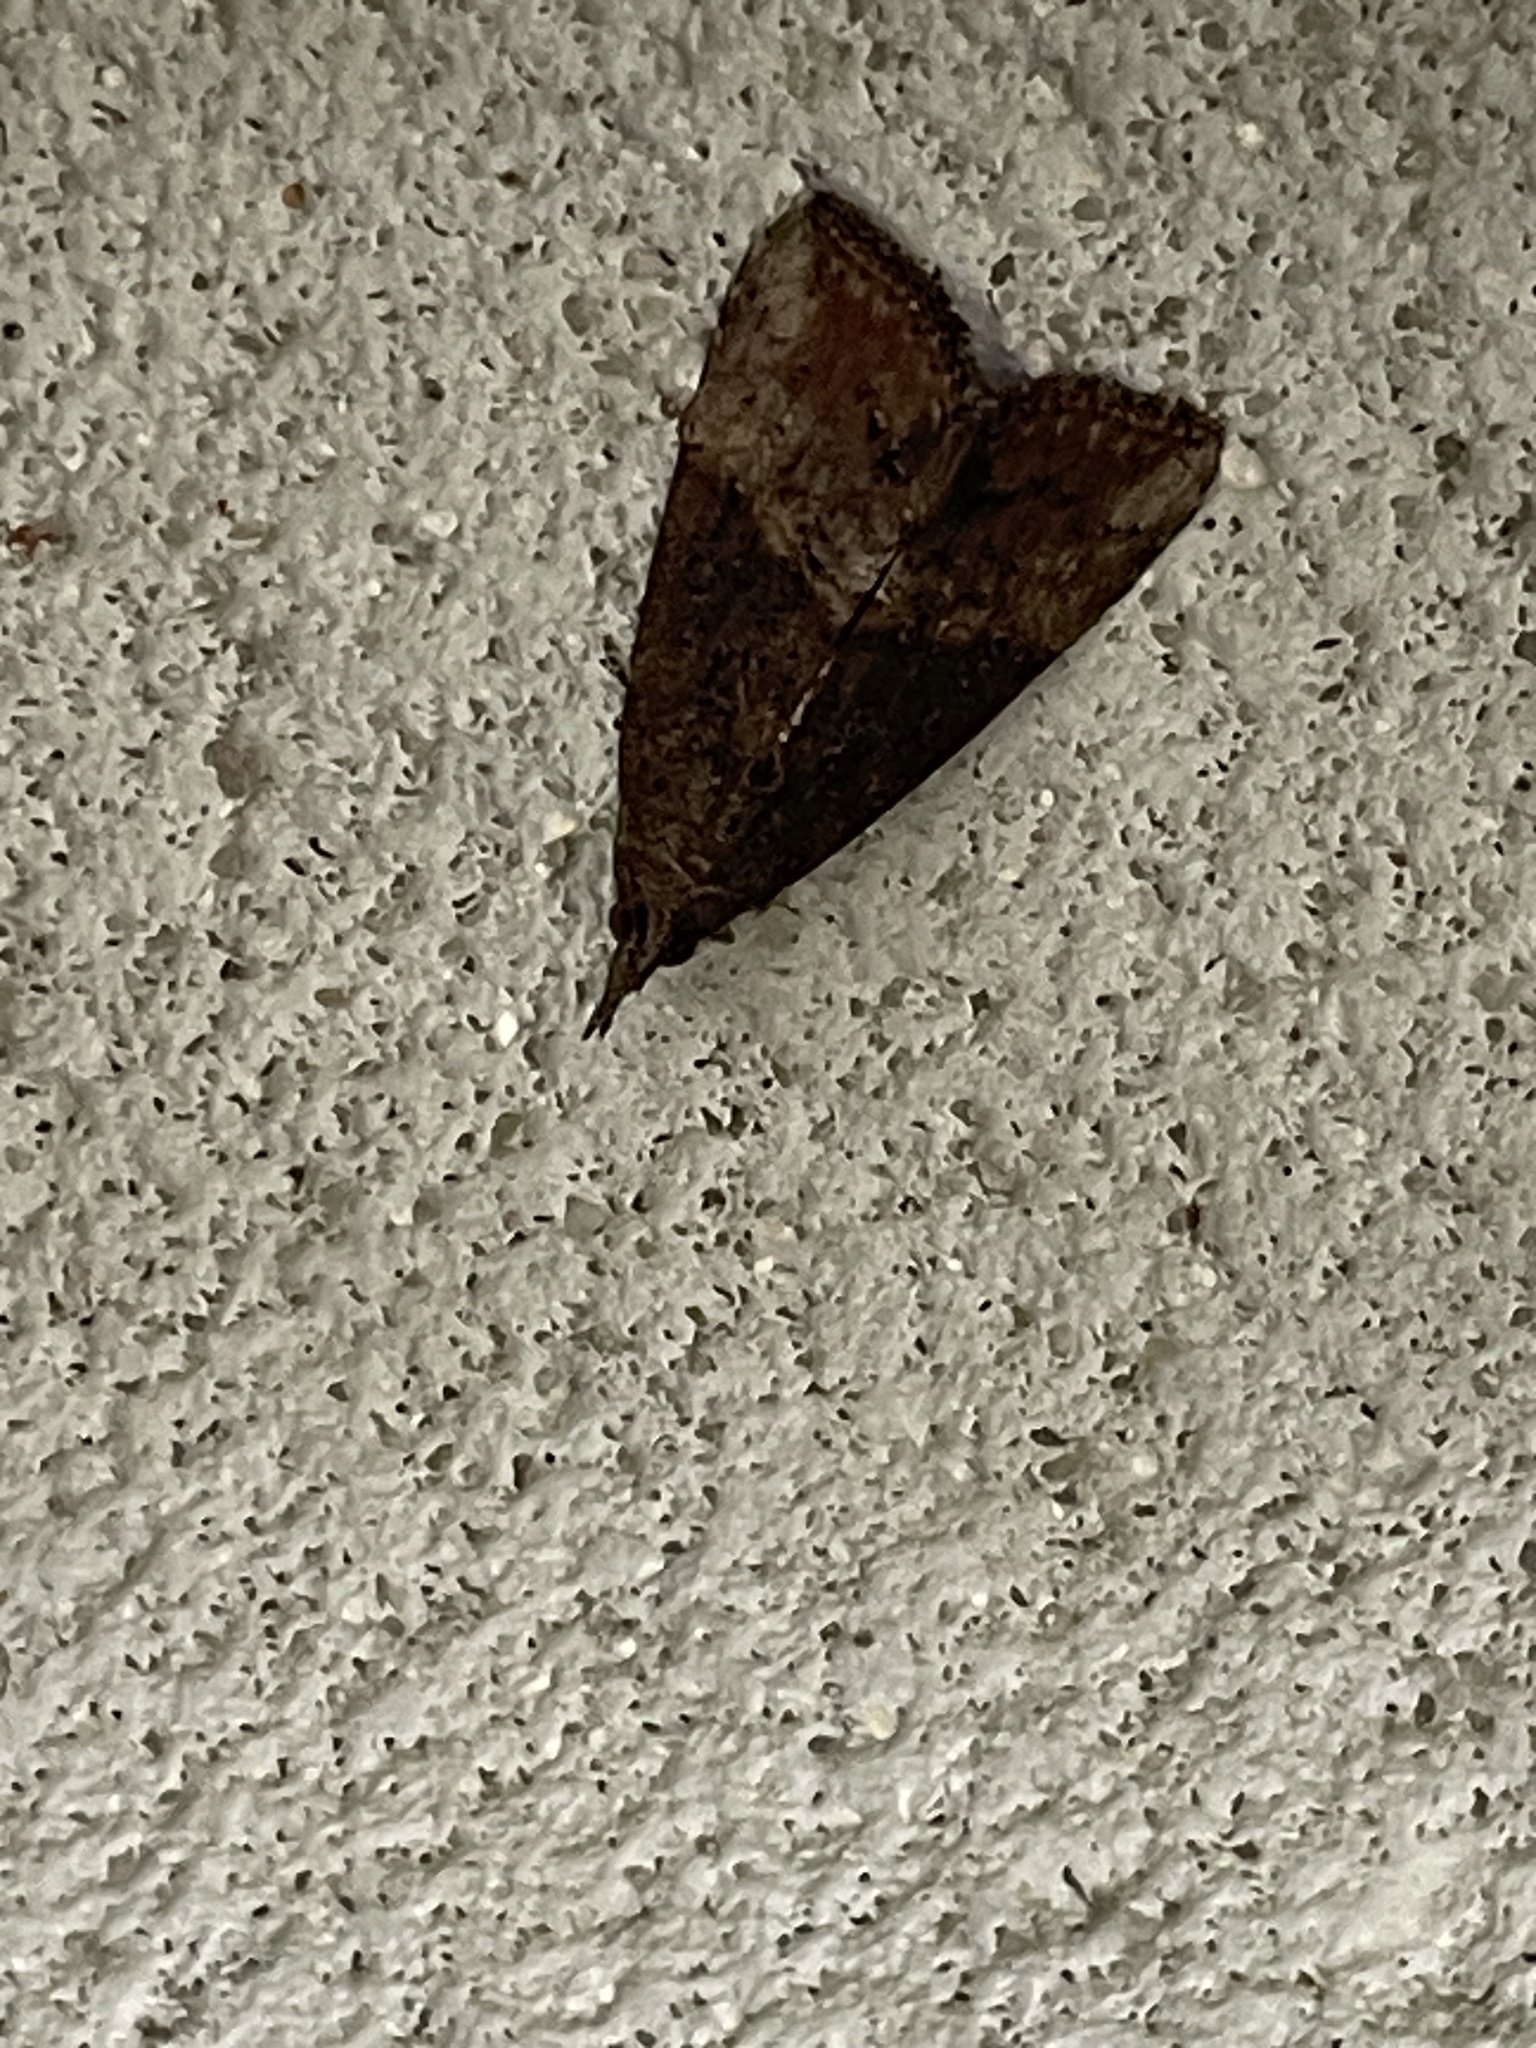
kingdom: Animalia
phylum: Arthropoda
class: Insecta
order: Lepidoptera
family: Erebidae
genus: Hypena
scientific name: Hypena scabra
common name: Green cloverworm
